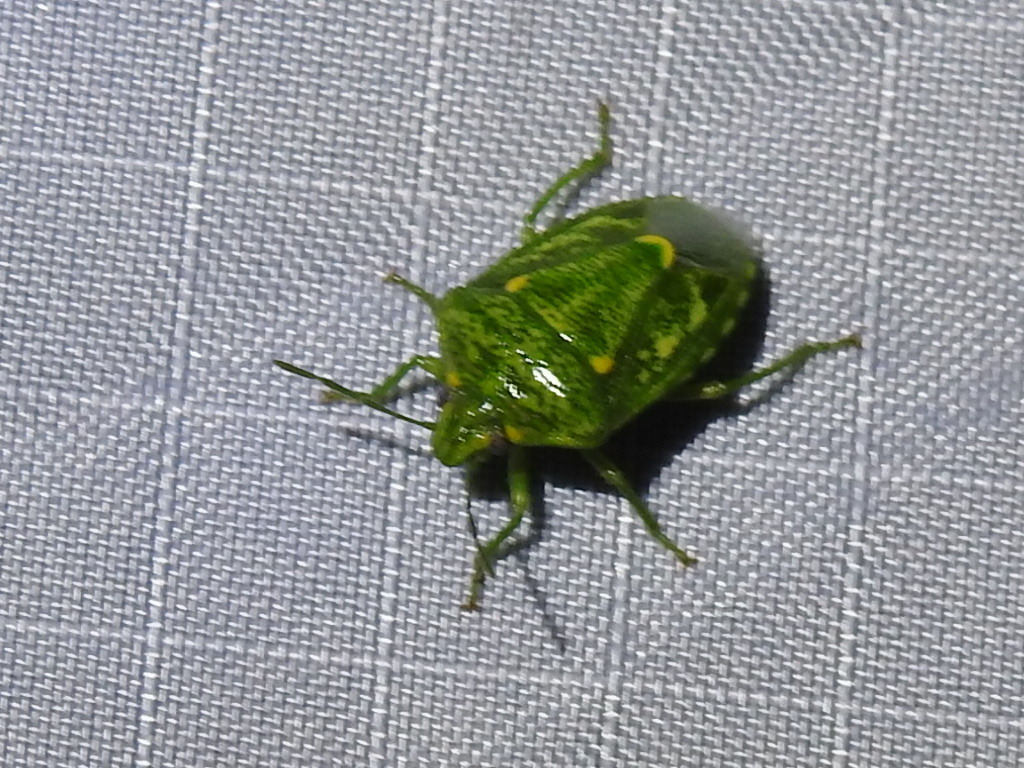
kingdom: Animalia
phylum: Arthropoda
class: Insecta
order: Hemiptera
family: Pentatomidae
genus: Banasa
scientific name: Banasa euchlora
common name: Cedar berry bug
